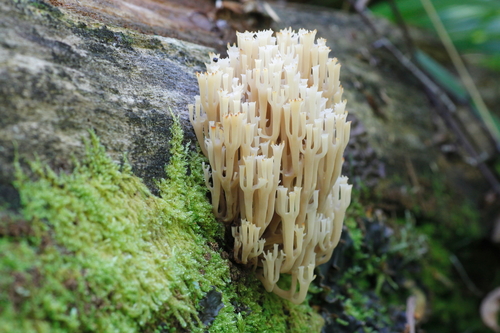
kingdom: Fungi
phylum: Basidiomycota
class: Agaricomycetes
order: Russulales
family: Auriscalpiaceae
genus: Artomyces
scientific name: Artomyces pyxidatus
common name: Crown-tipped coral fungus
